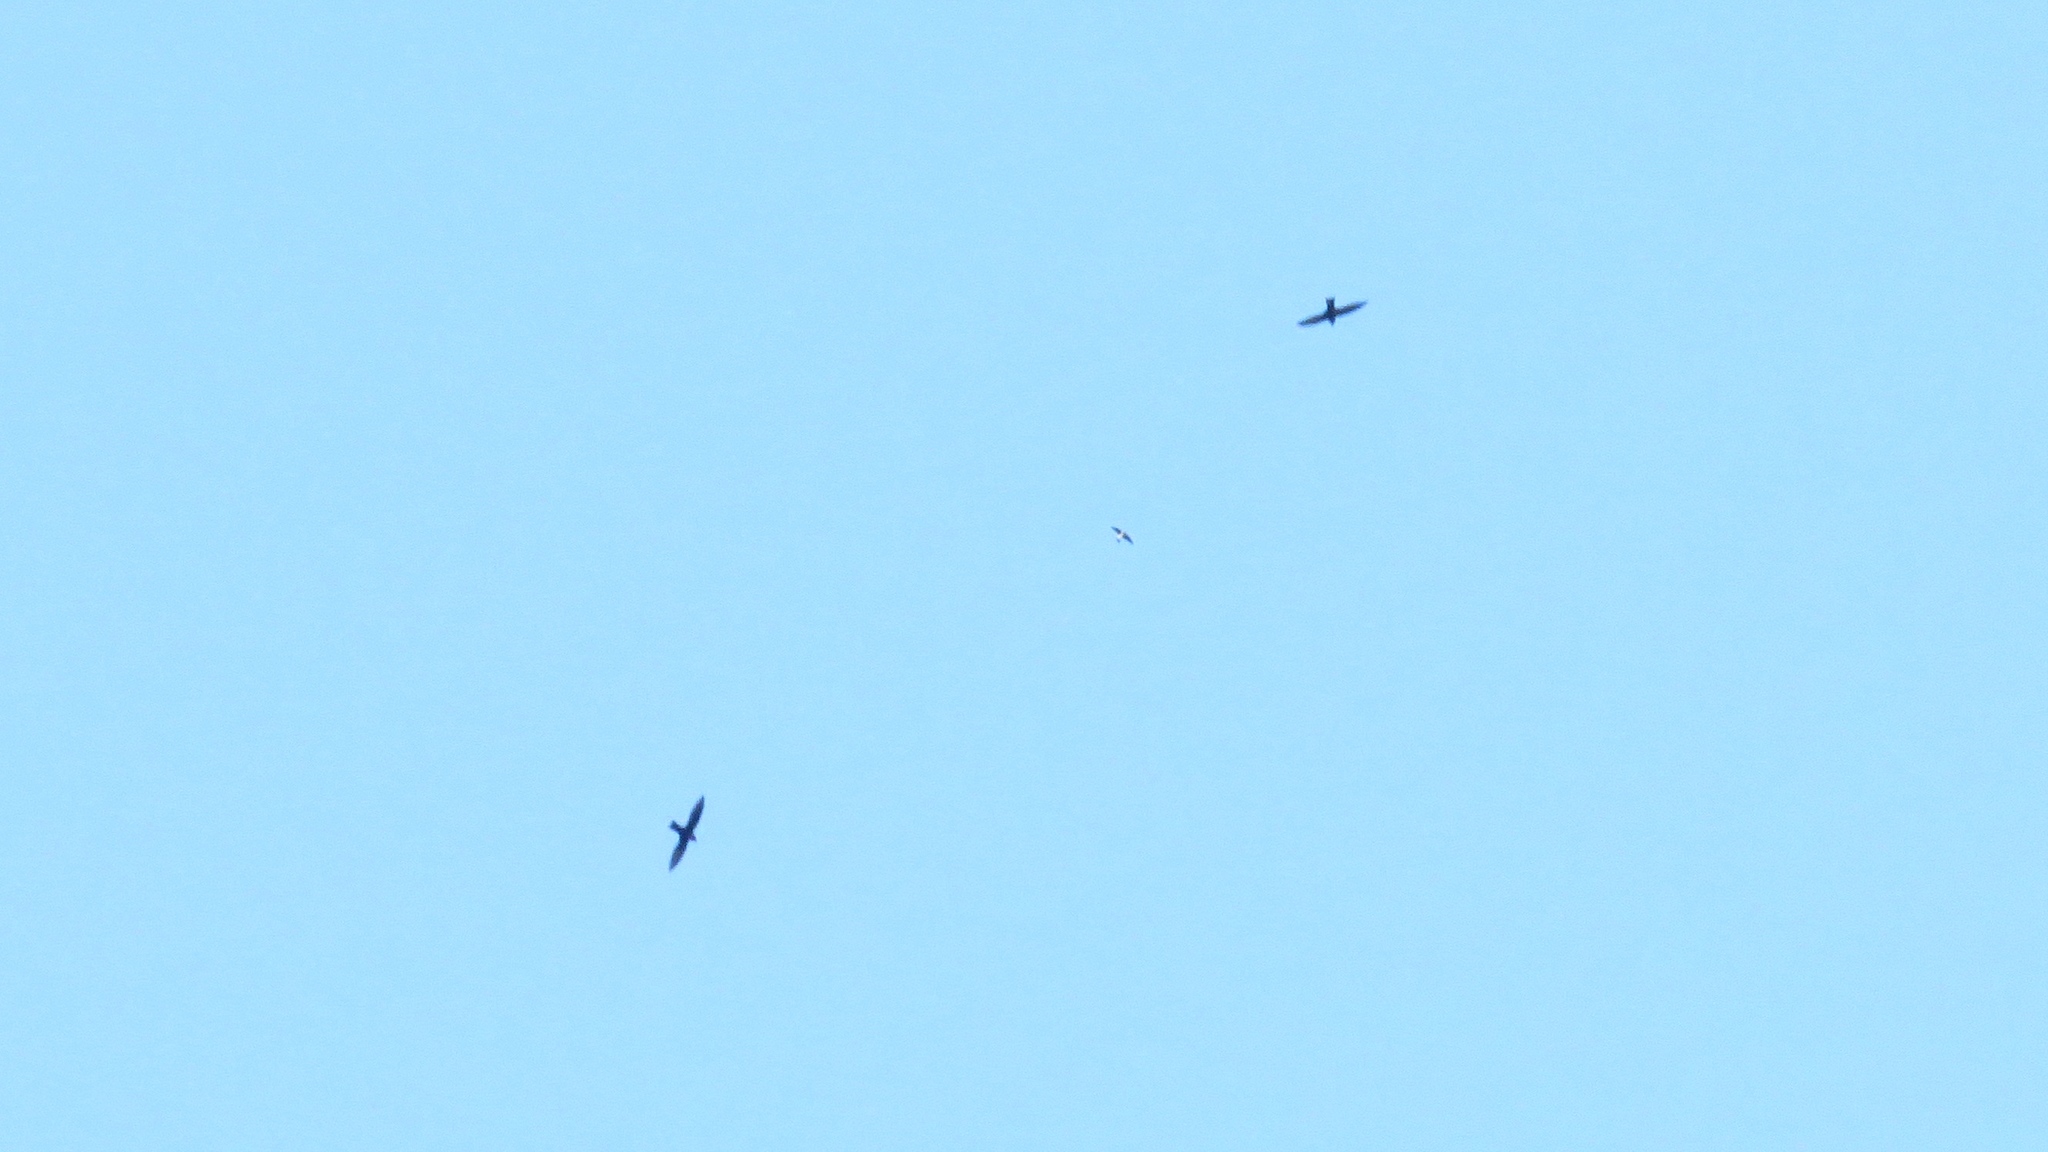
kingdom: Animalia
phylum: Chordata
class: Aves
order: Apodiformes
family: Apodidae
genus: Streptoprocne
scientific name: Streptoprocne zonaris
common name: White-collared swift
